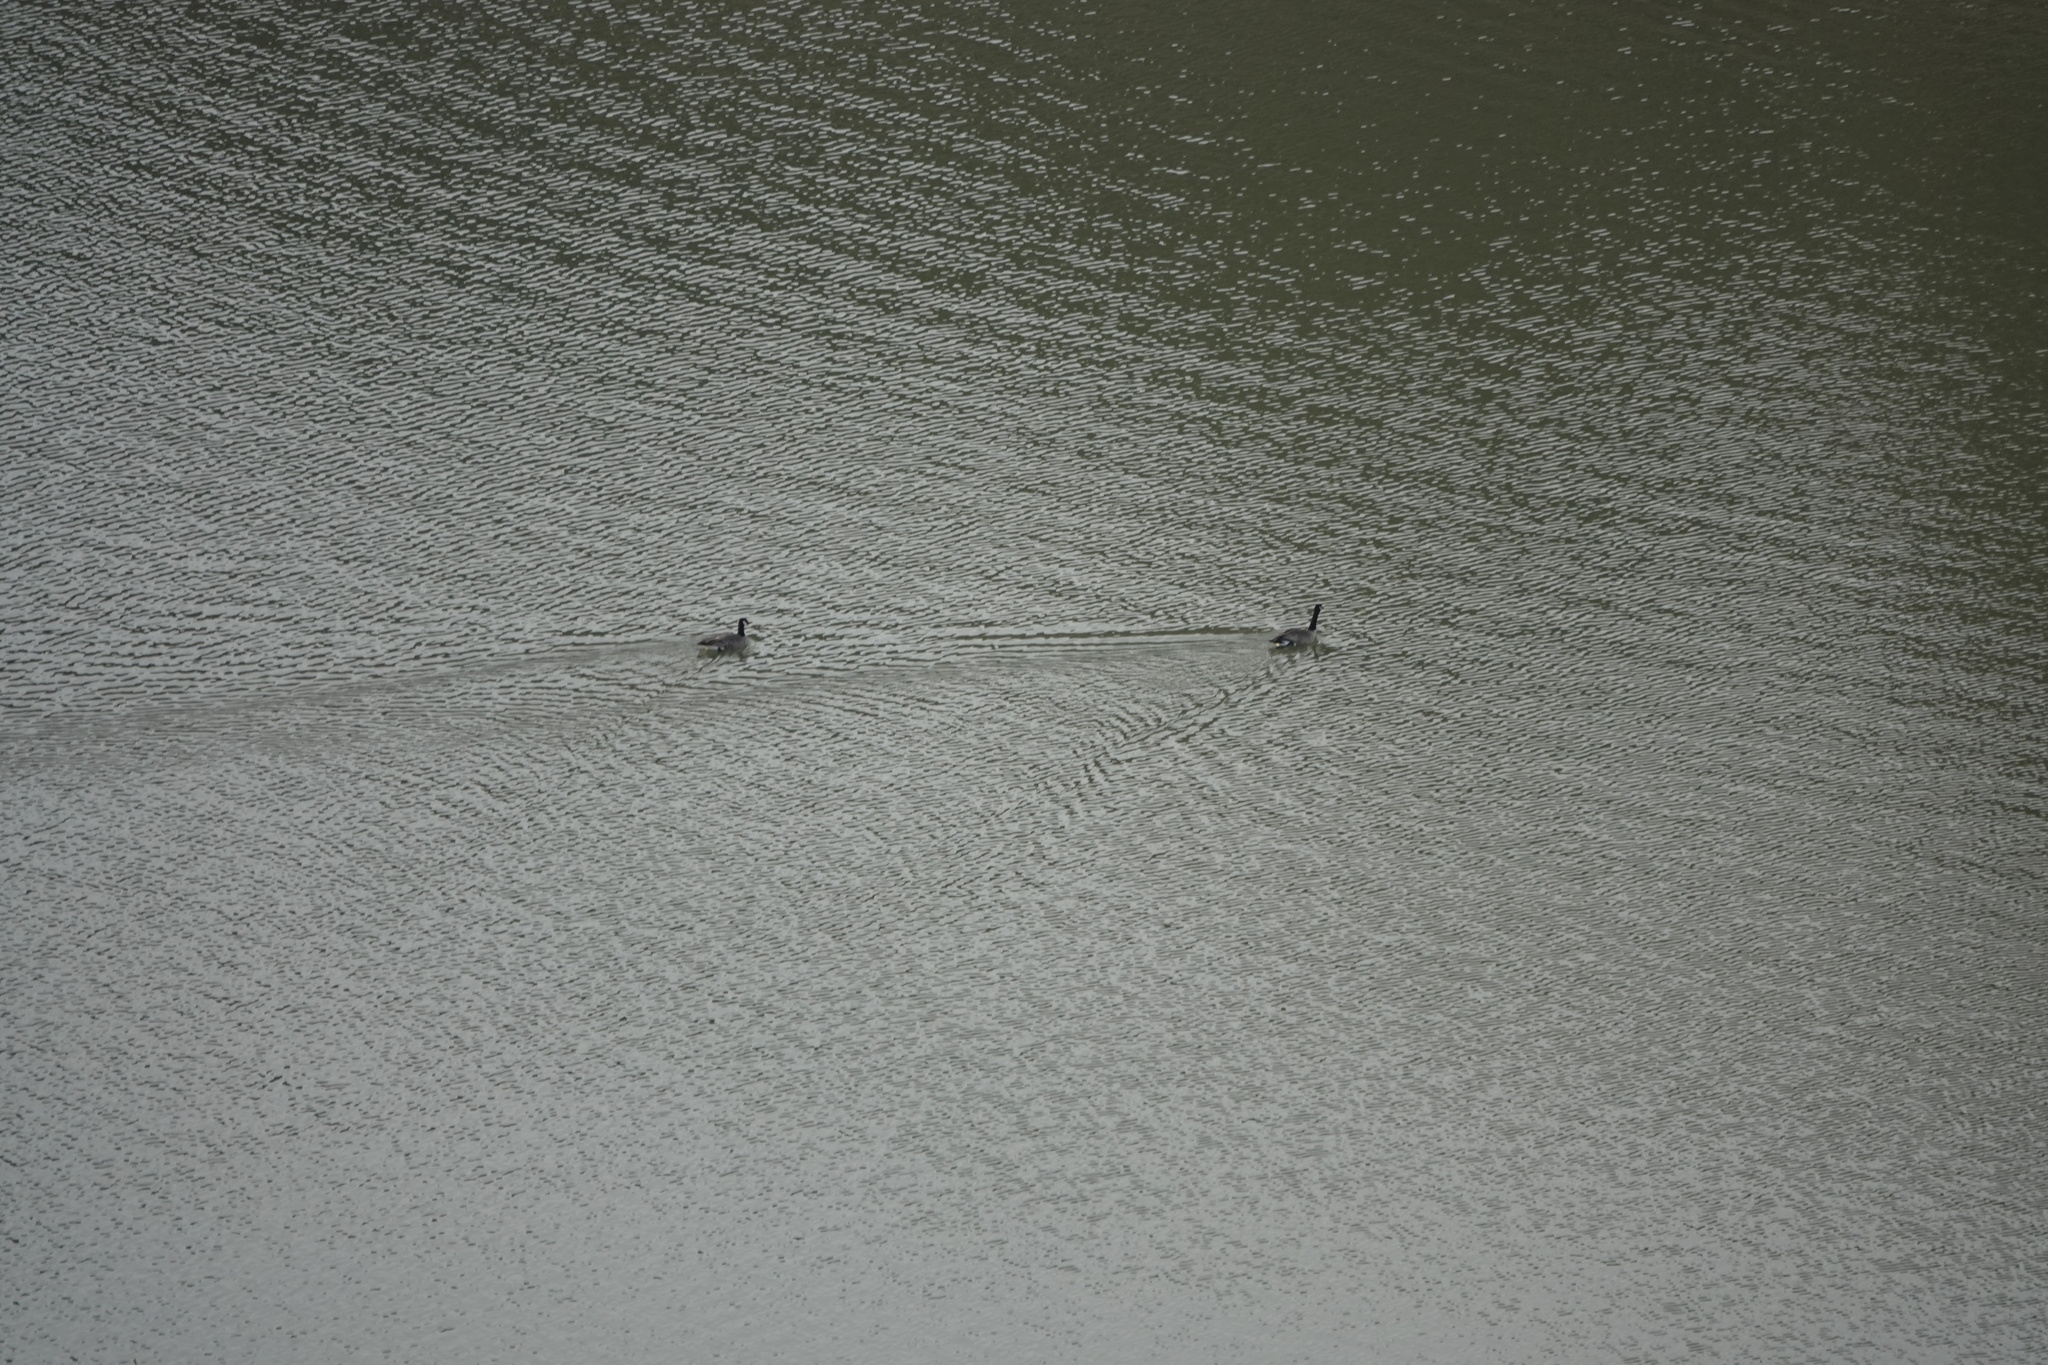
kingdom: Animalia
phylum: Chordata
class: Aves
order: Anseriformes
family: Anatidae
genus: Branta
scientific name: Branta canadensis
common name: Canada goose
